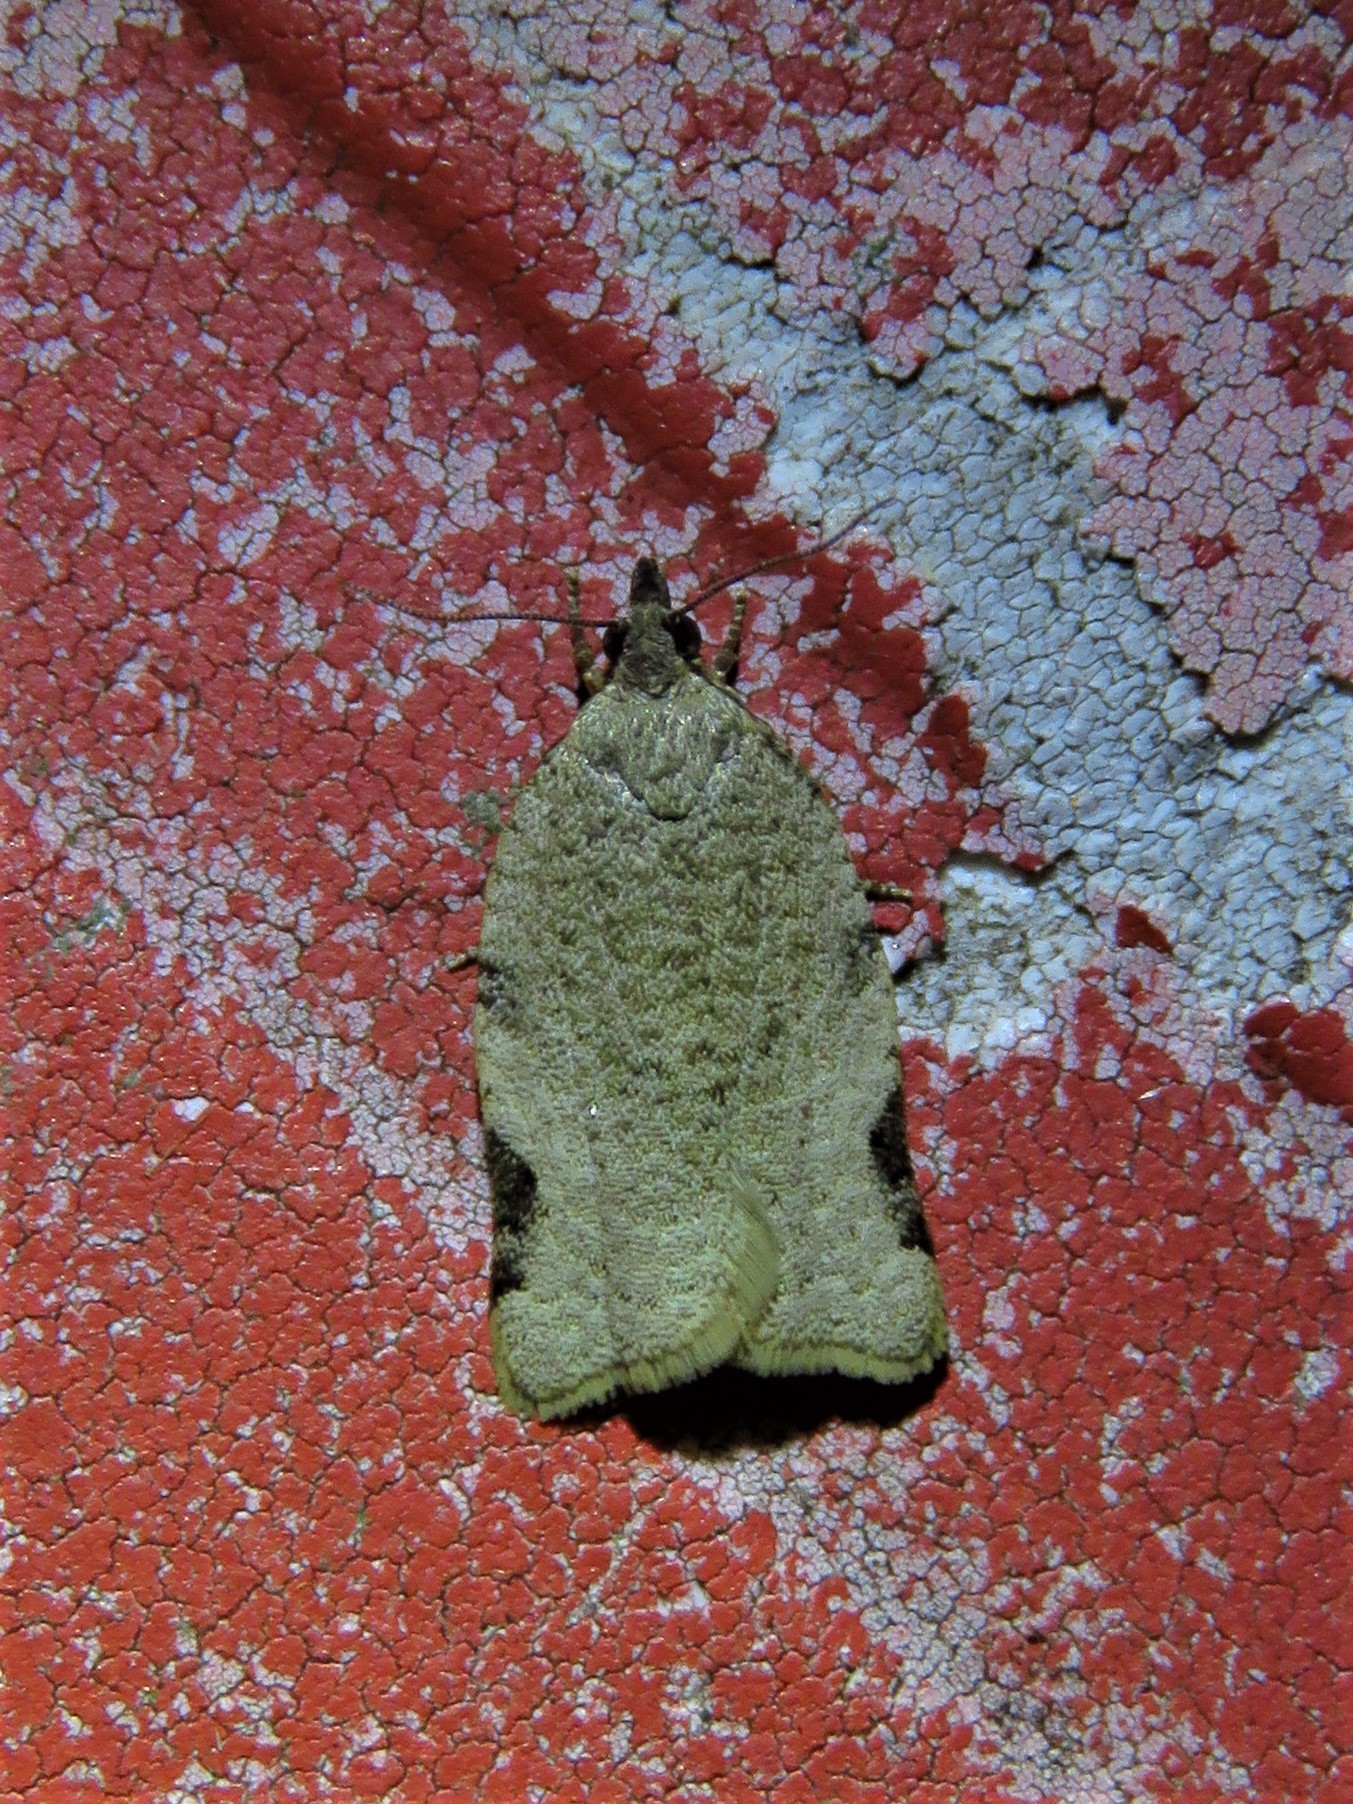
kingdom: Animalia
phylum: Arthropoda
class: Insecta
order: Lepidoptera
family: Tortricidae
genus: Clepsis
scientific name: Clepsis virescana
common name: Greenish apple moth
